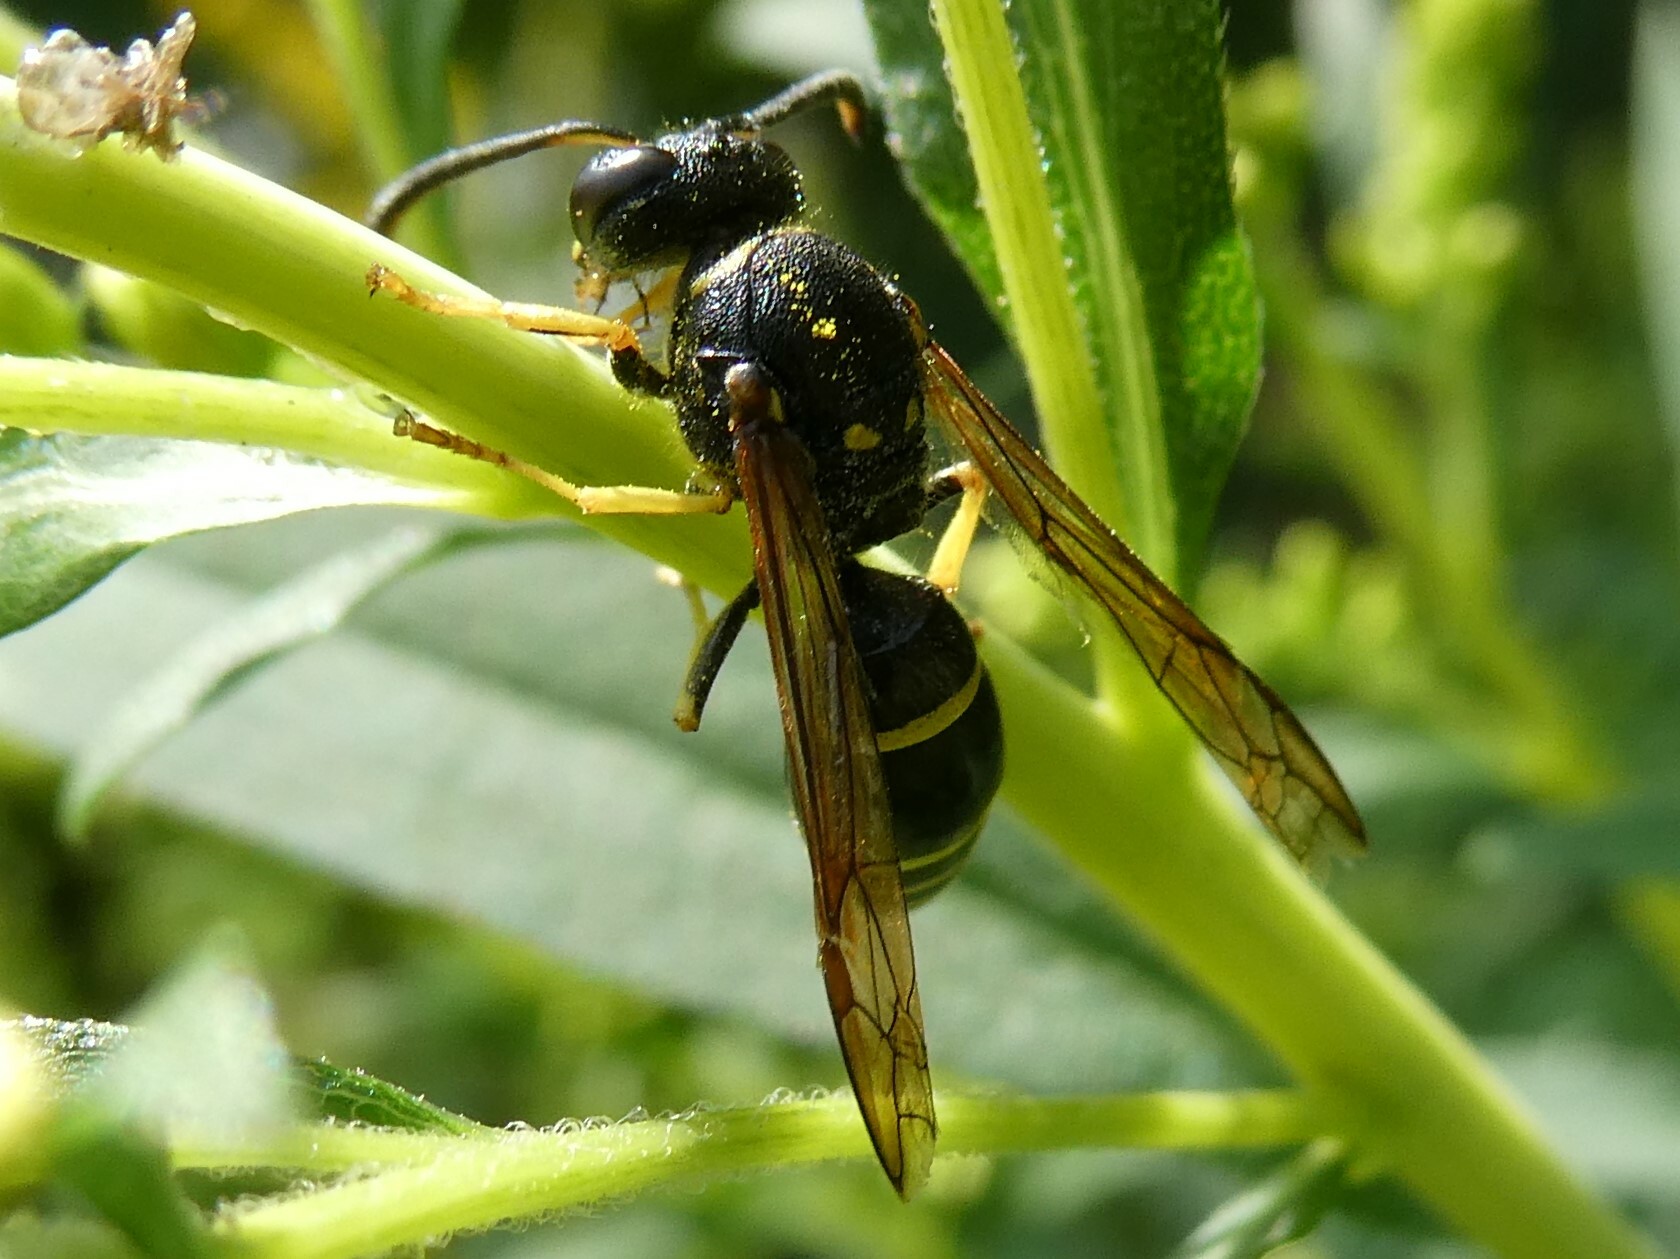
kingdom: Animalia
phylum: Arthropoda
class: Insecta
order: Hymenoptera
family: Vespidae
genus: Ancistrocerus
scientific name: Ancistrocerus
